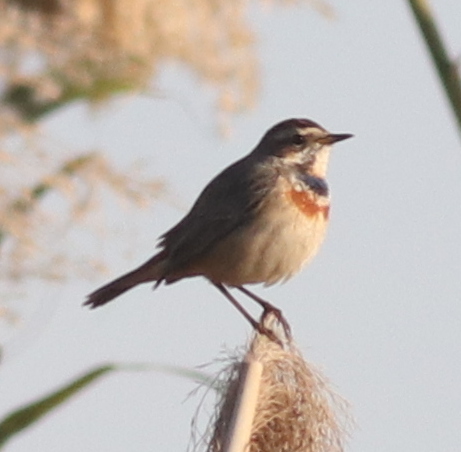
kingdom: Animalia
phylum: Chordata
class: Aves
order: Passeriformes
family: Muscicapidae
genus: Luscinia
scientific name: Luscinia svecica
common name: Bluethroat
